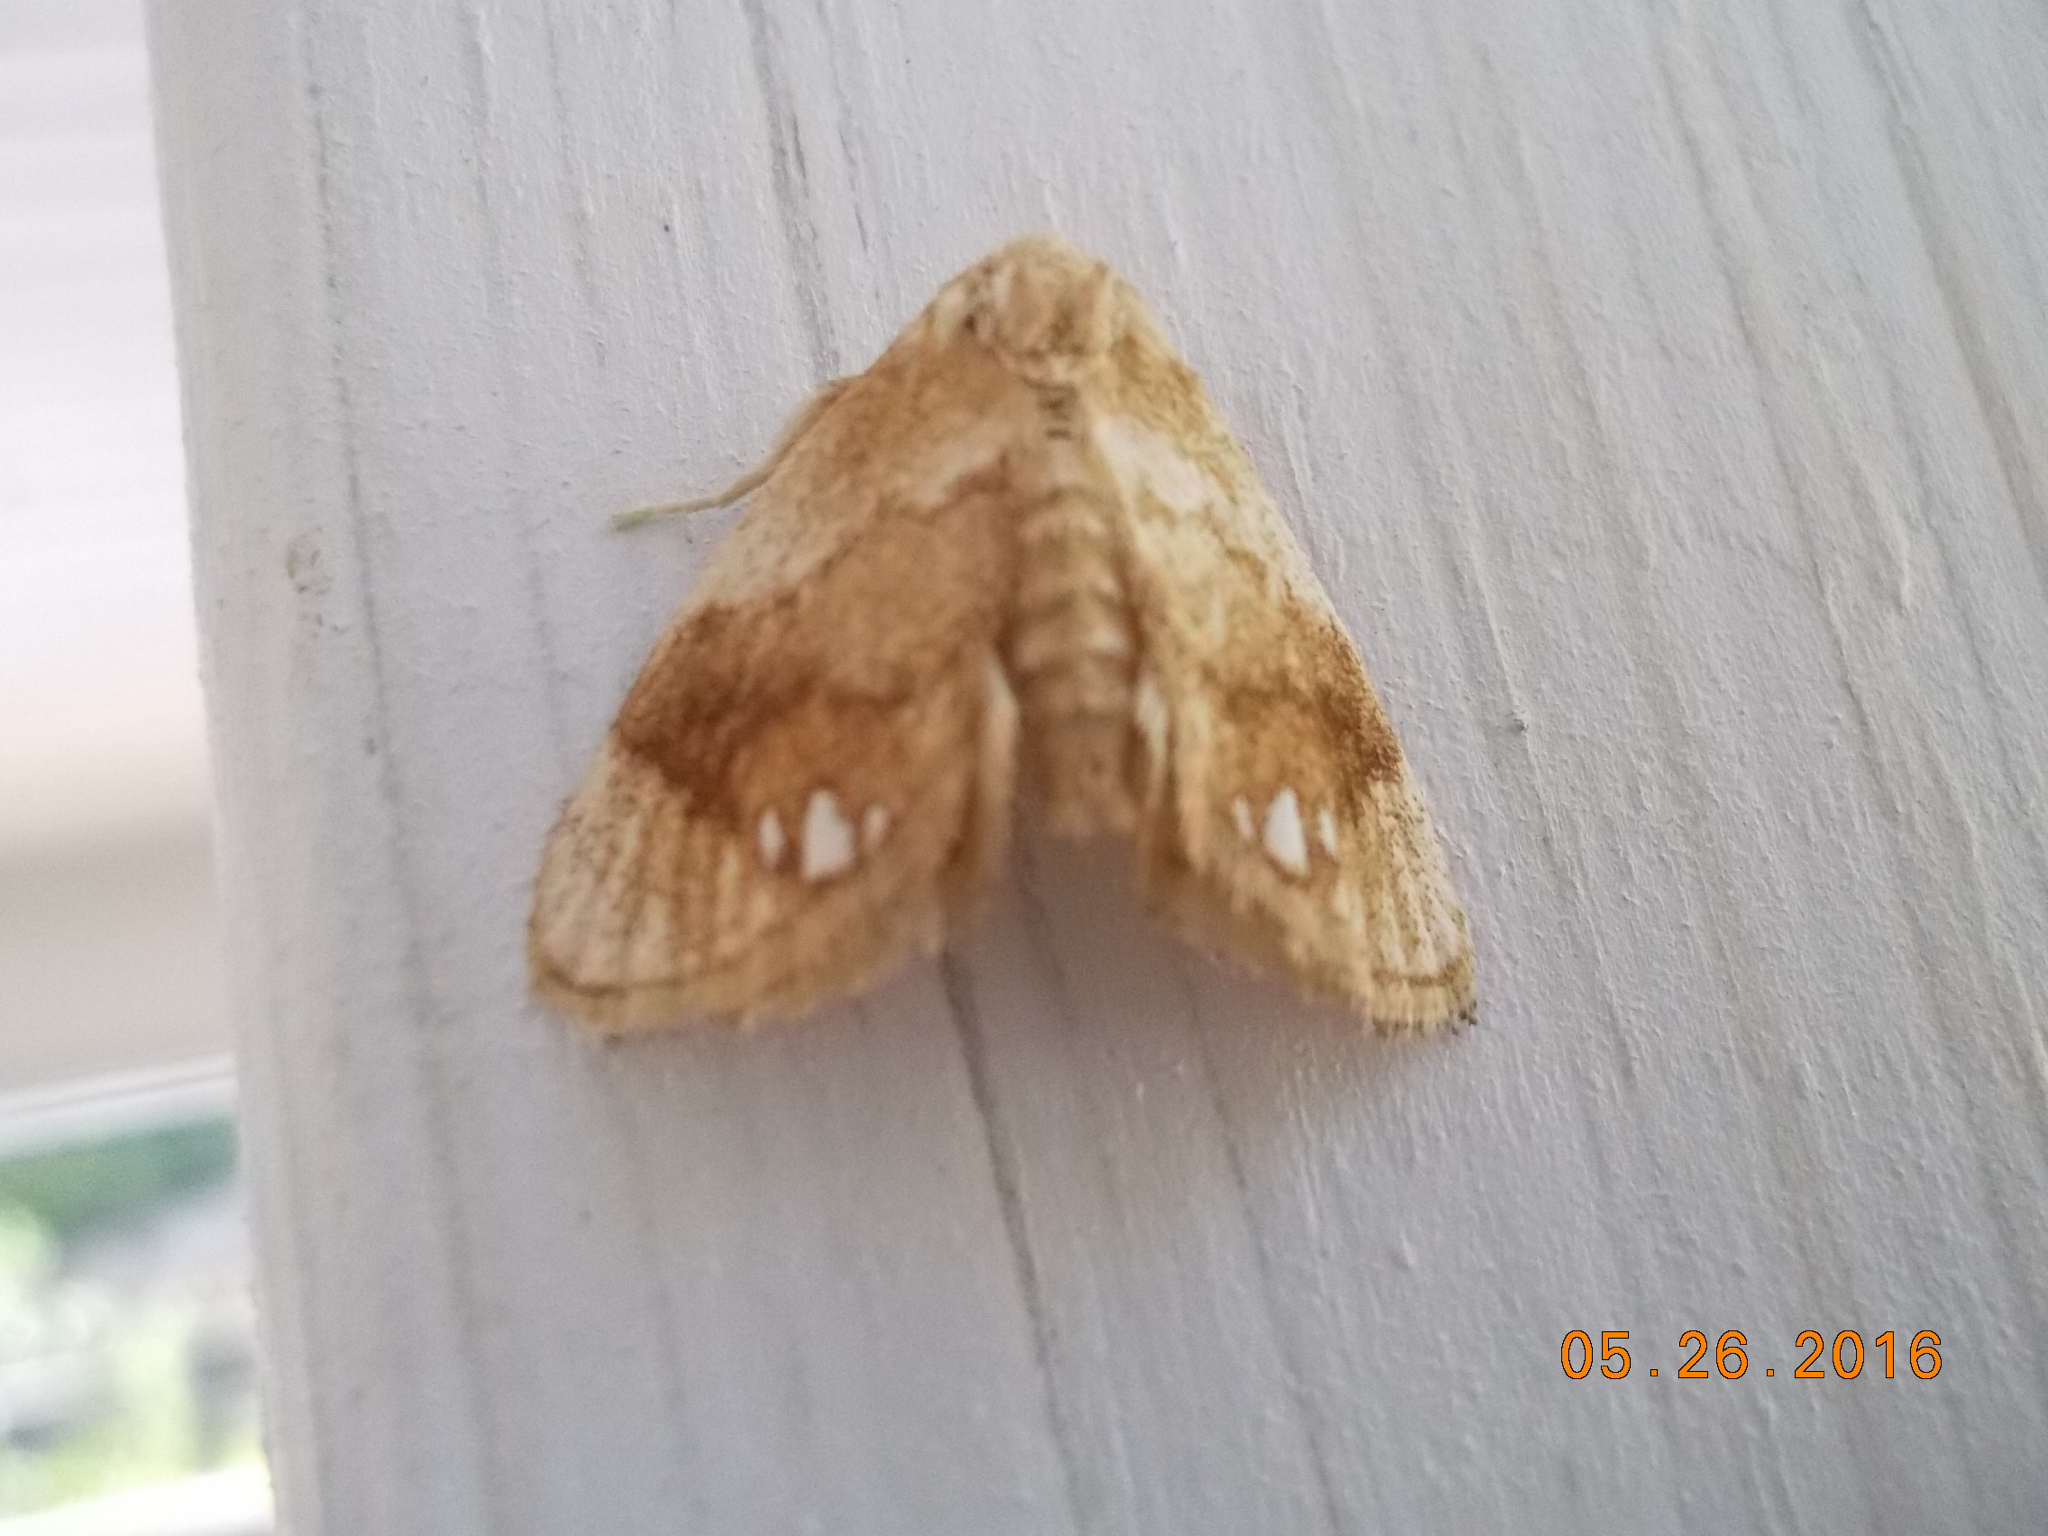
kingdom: Animalia
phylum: Arthropoda
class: Insecta
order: Lepidoptera
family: Limacodidae
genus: Packardia
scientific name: Packardia geminata
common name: Jeweled tailed slug moth
